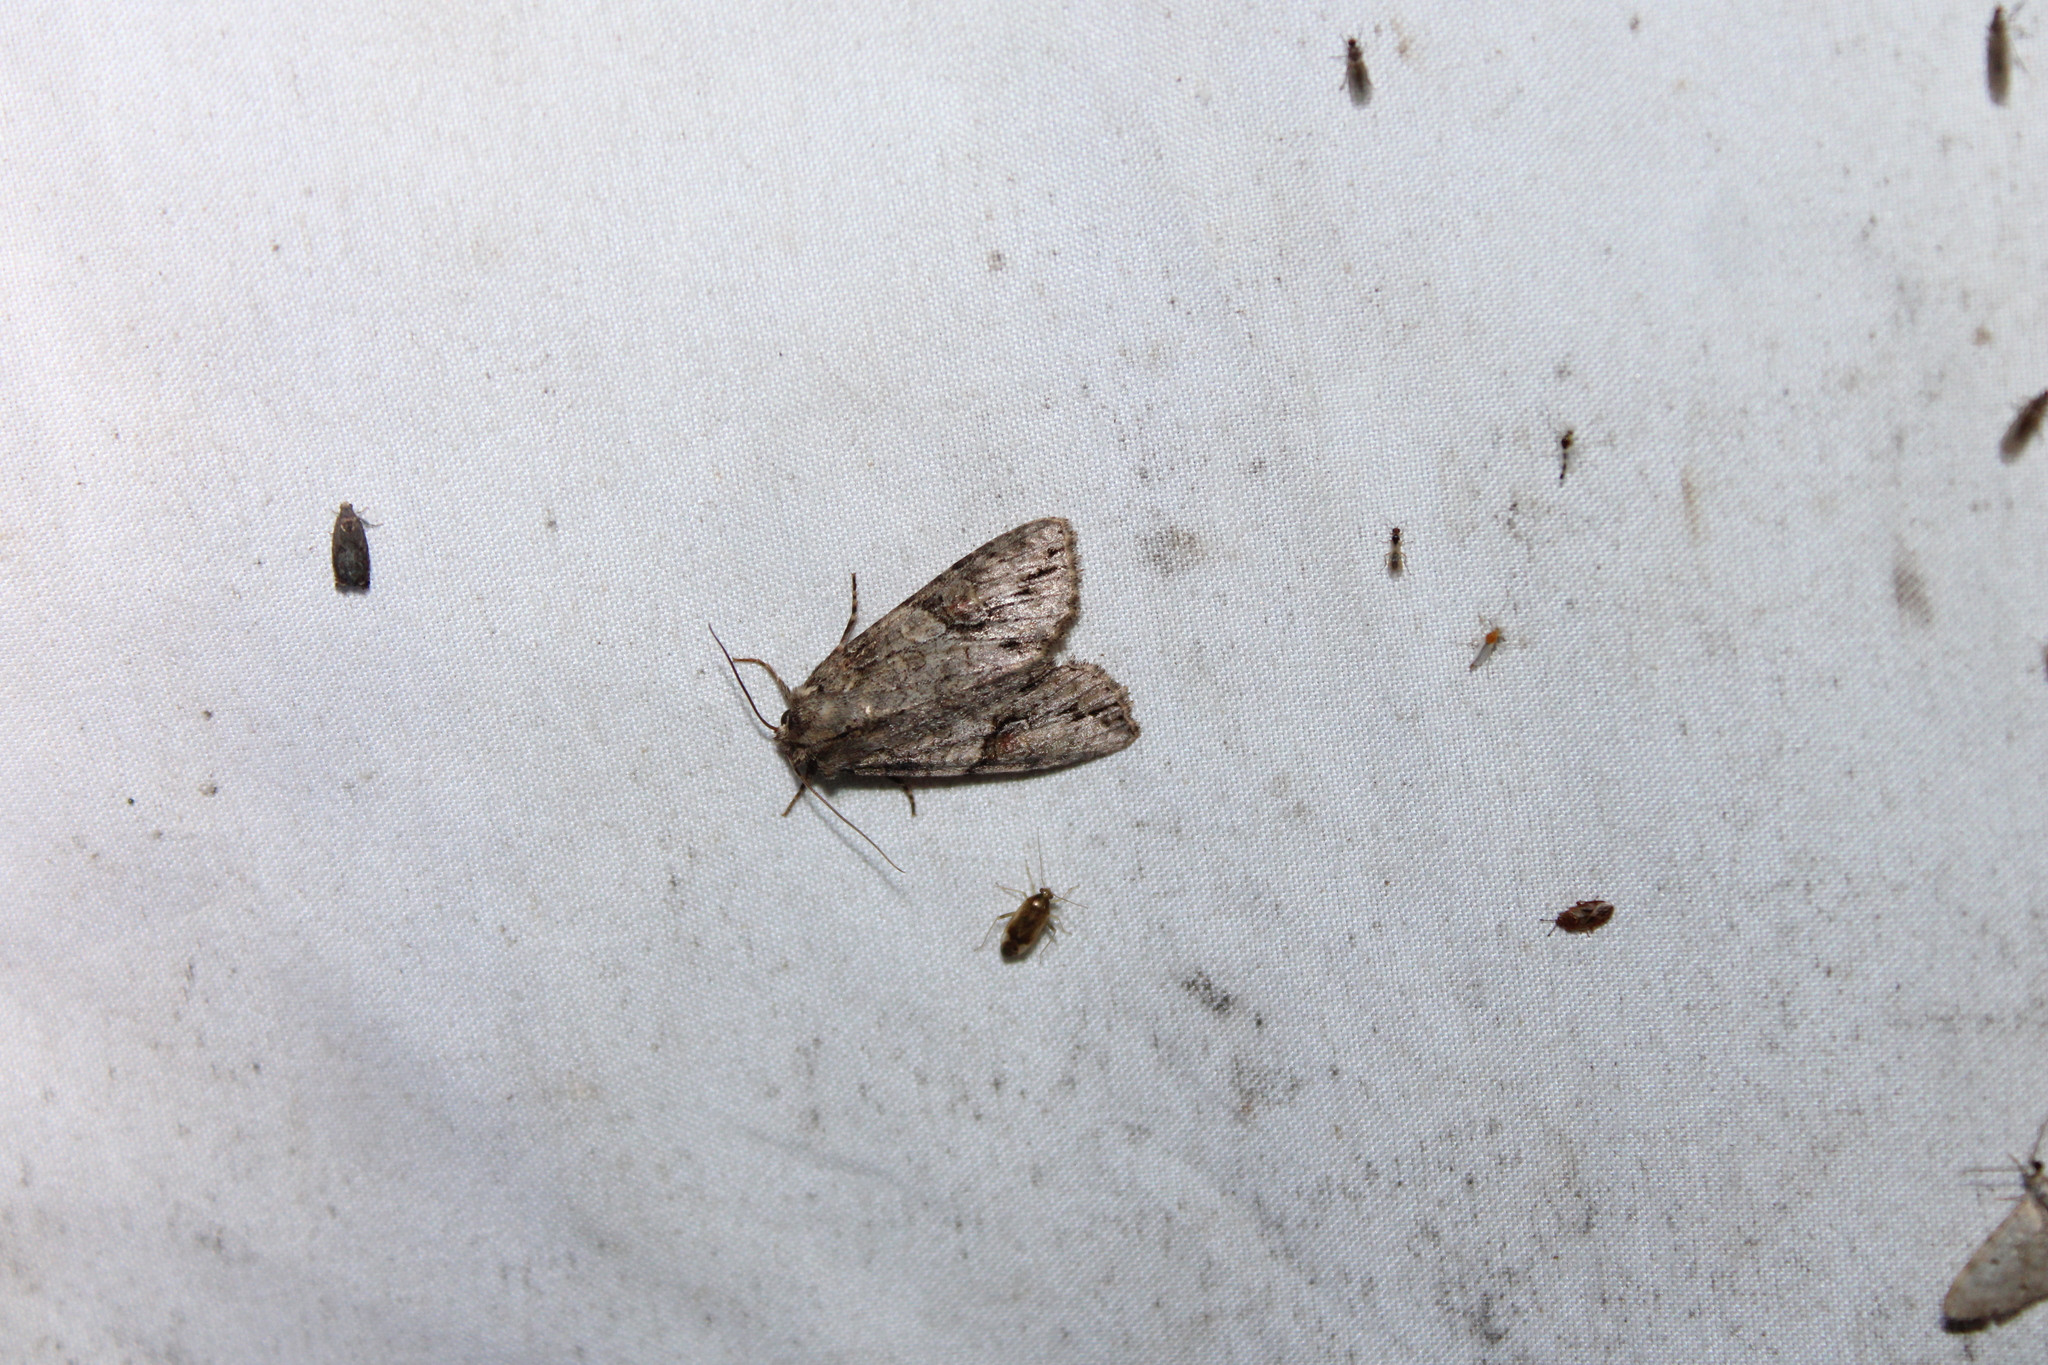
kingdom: Animalia
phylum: Arthropoda
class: Insecta
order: Lepidoptera
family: Noctuidae
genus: Achatia
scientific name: Achatia latex
